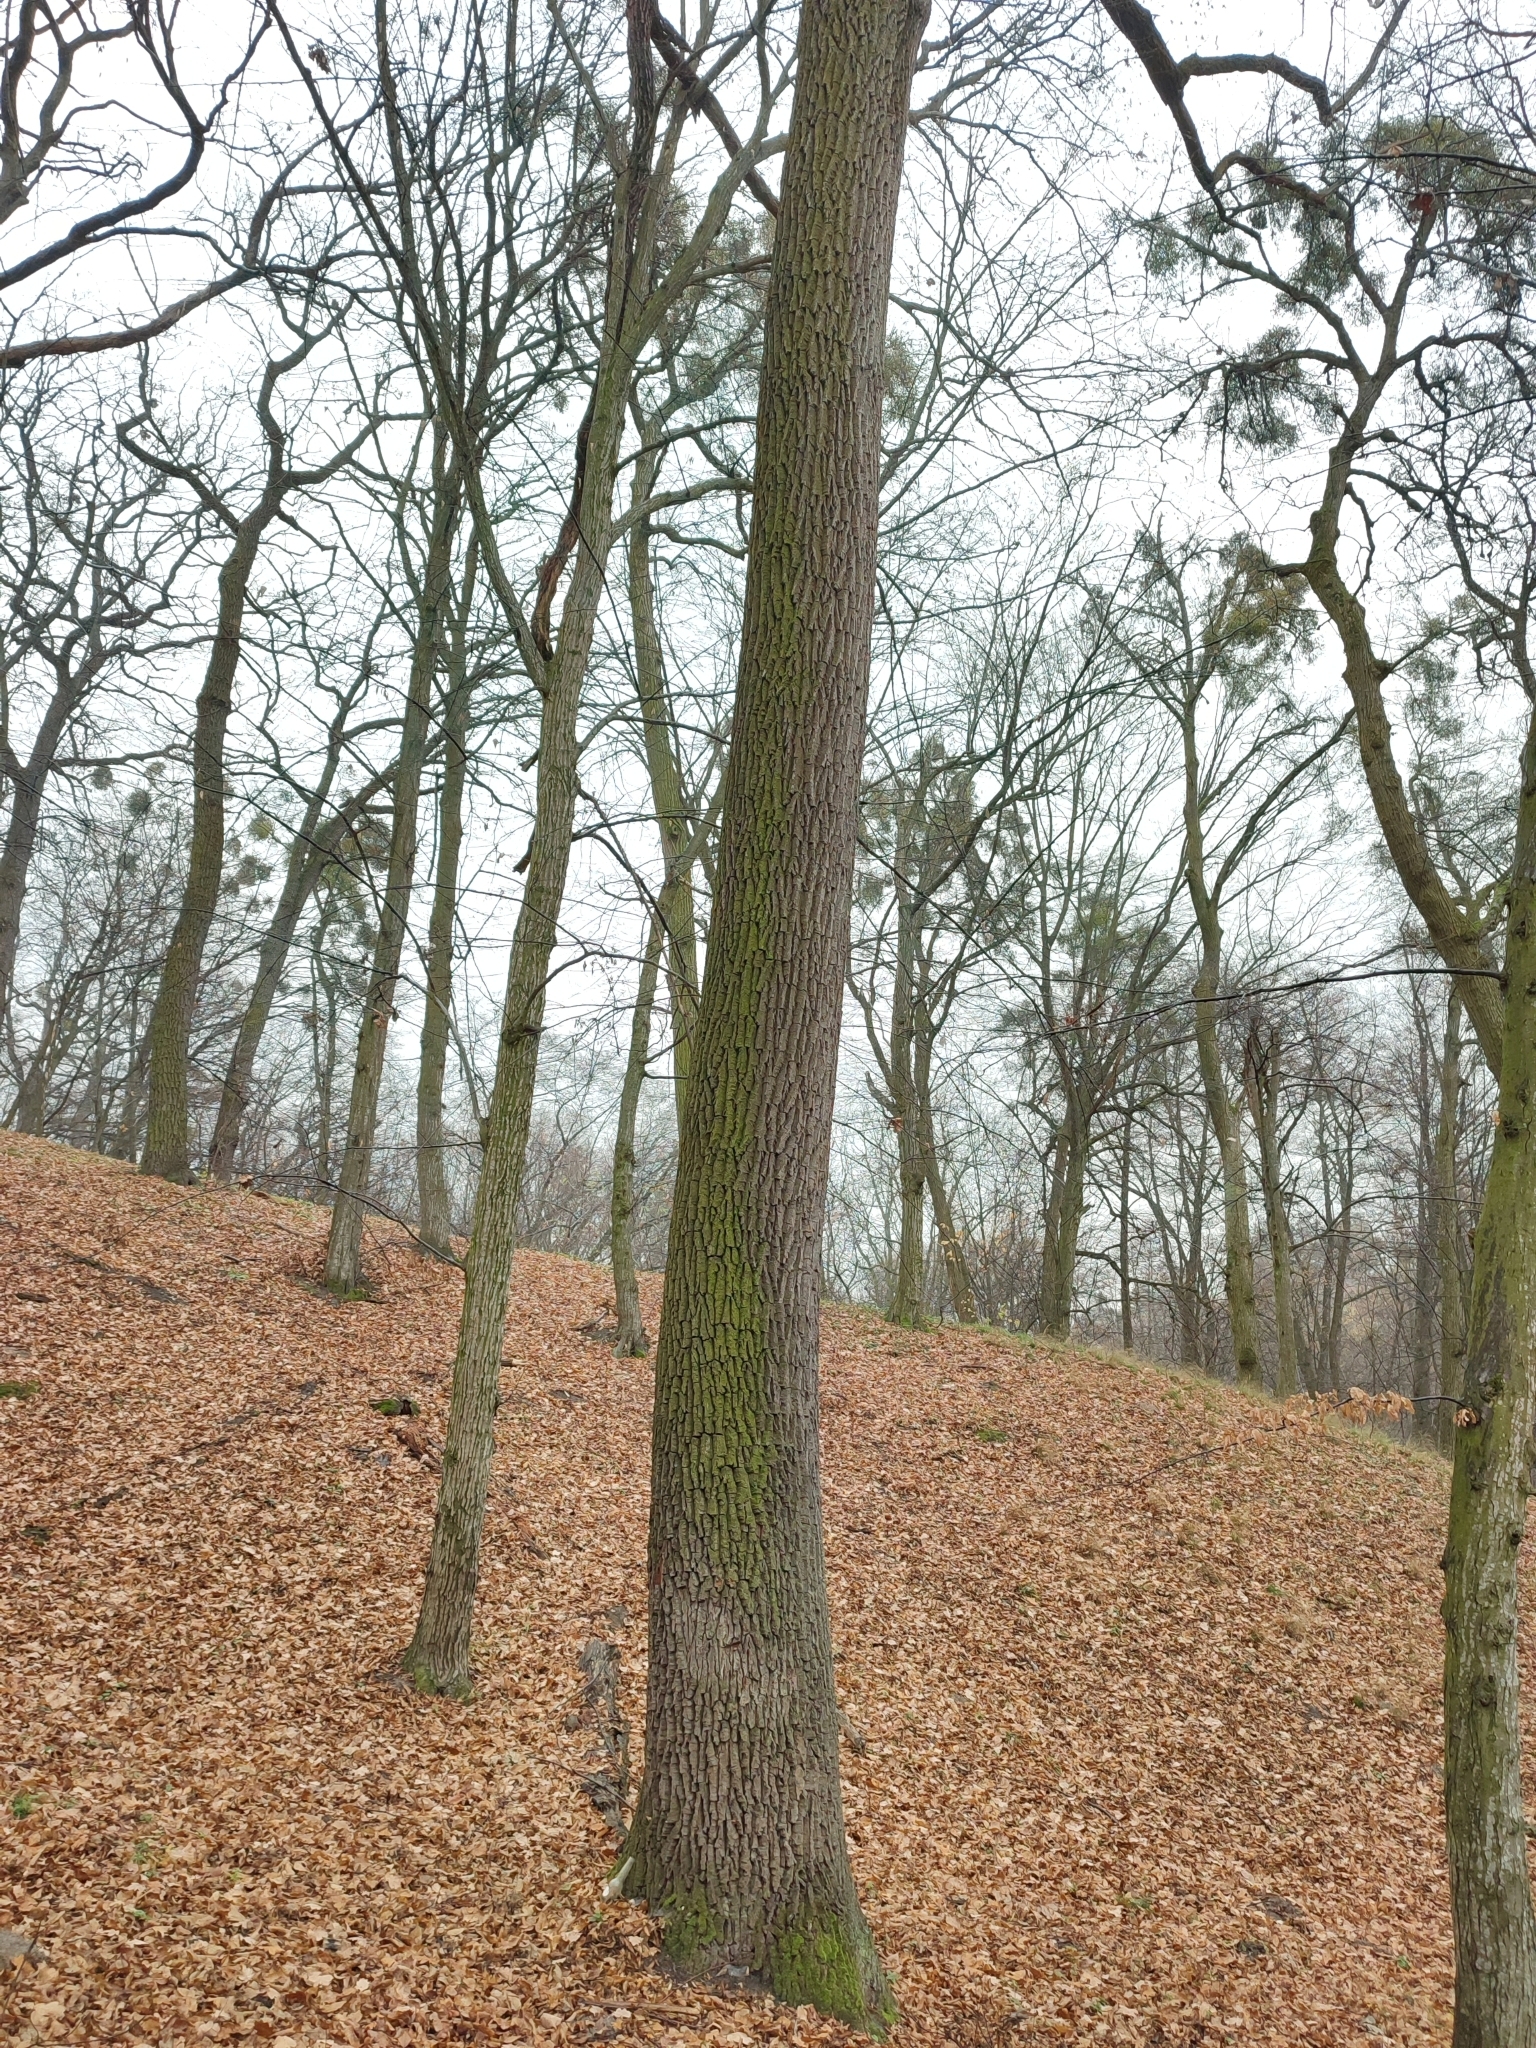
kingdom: Plantae
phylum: Tracheophyta
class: Magnoliopsida
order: Fagales
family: Fagaceae
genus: Quercus
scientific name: Quercus robur
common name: Pedunculate oak
